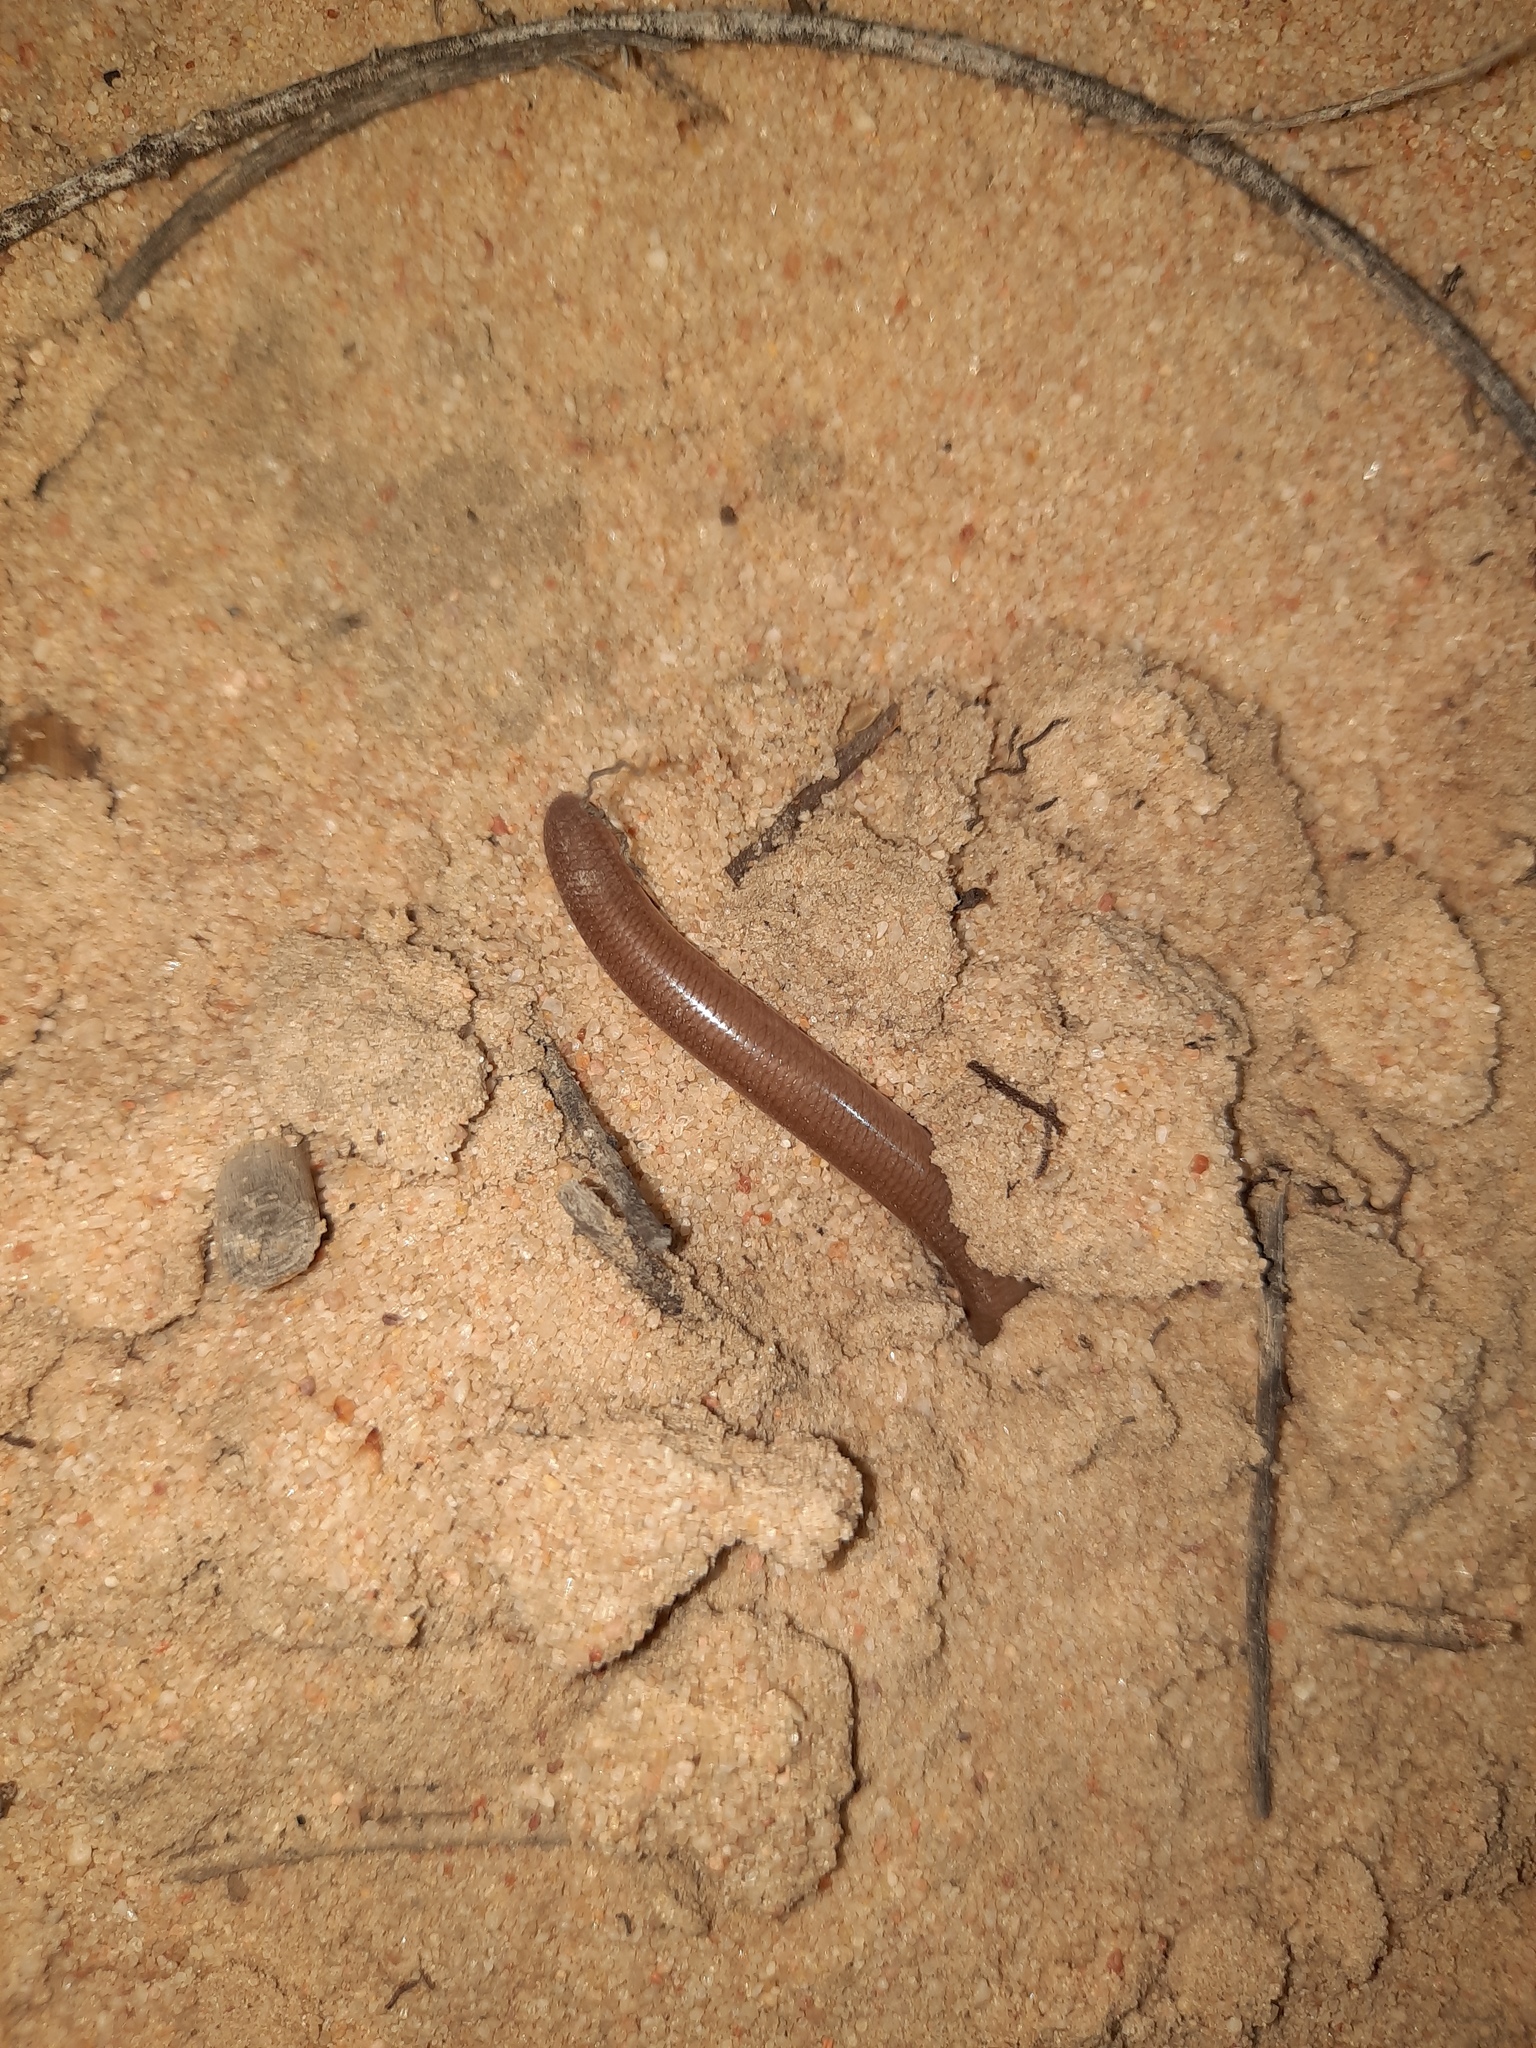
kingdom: Animalia
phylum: Chordata
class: Squamata
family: Typhlopidae
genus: Anilios
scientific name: Anilios bituberculatus
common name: Prong-snouted blind snake
